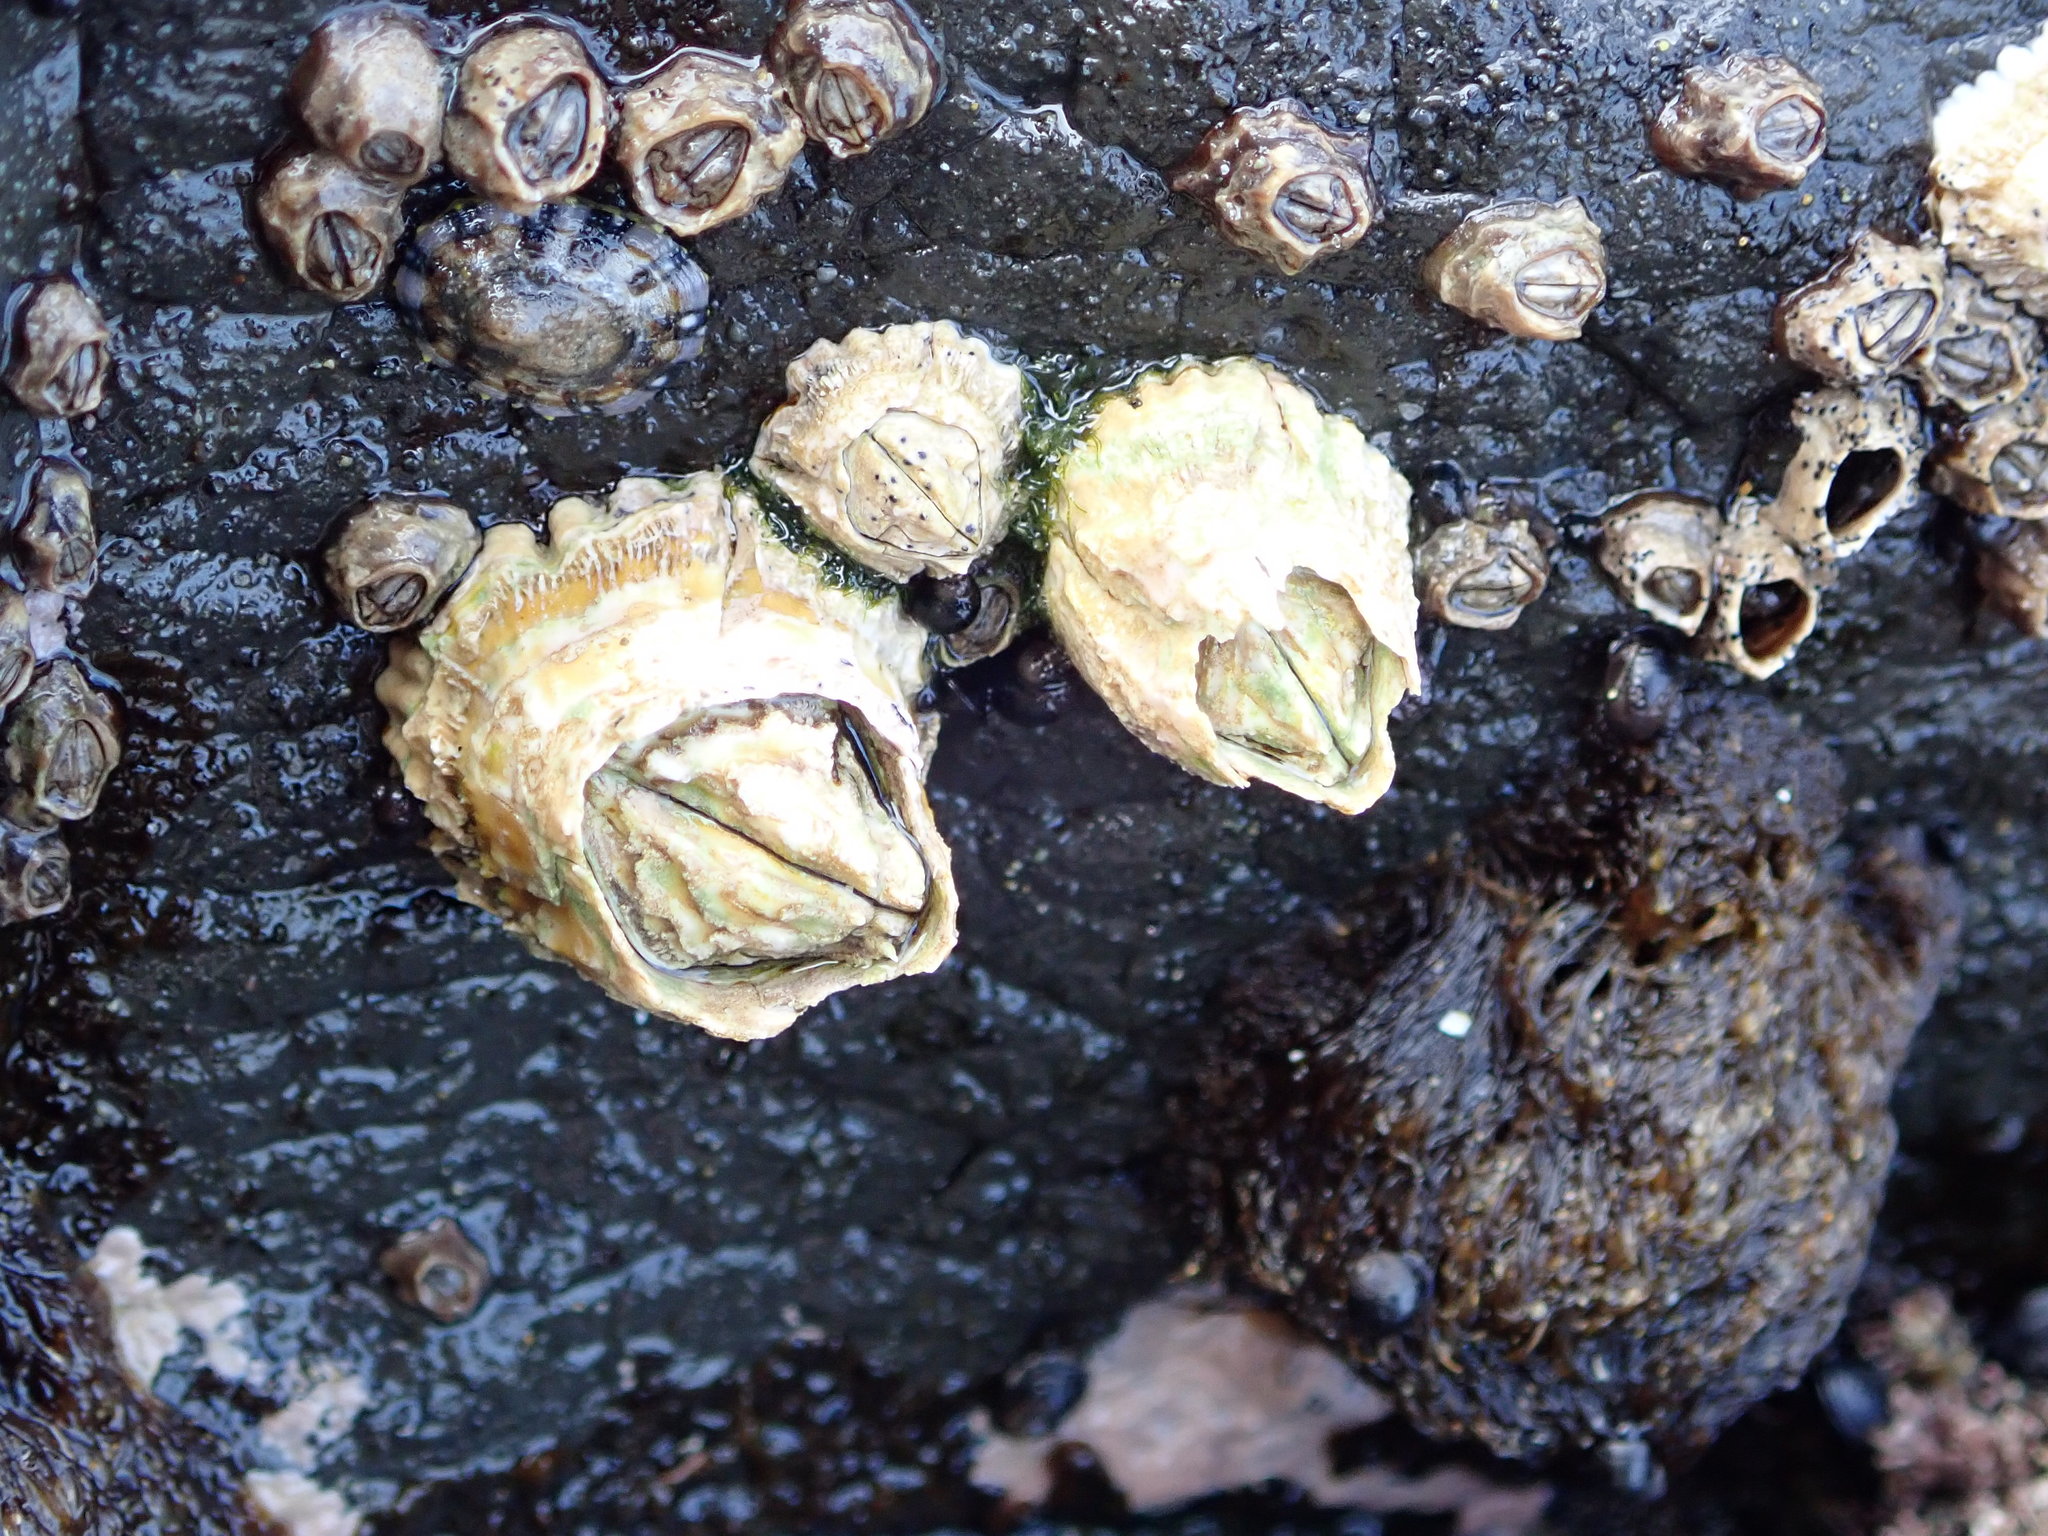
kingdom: Animalia
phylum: Arthropoda
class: Maxillopoda
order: Sessilia
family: Tetraclitidae
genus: Epopella
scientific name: Epopella plicata
